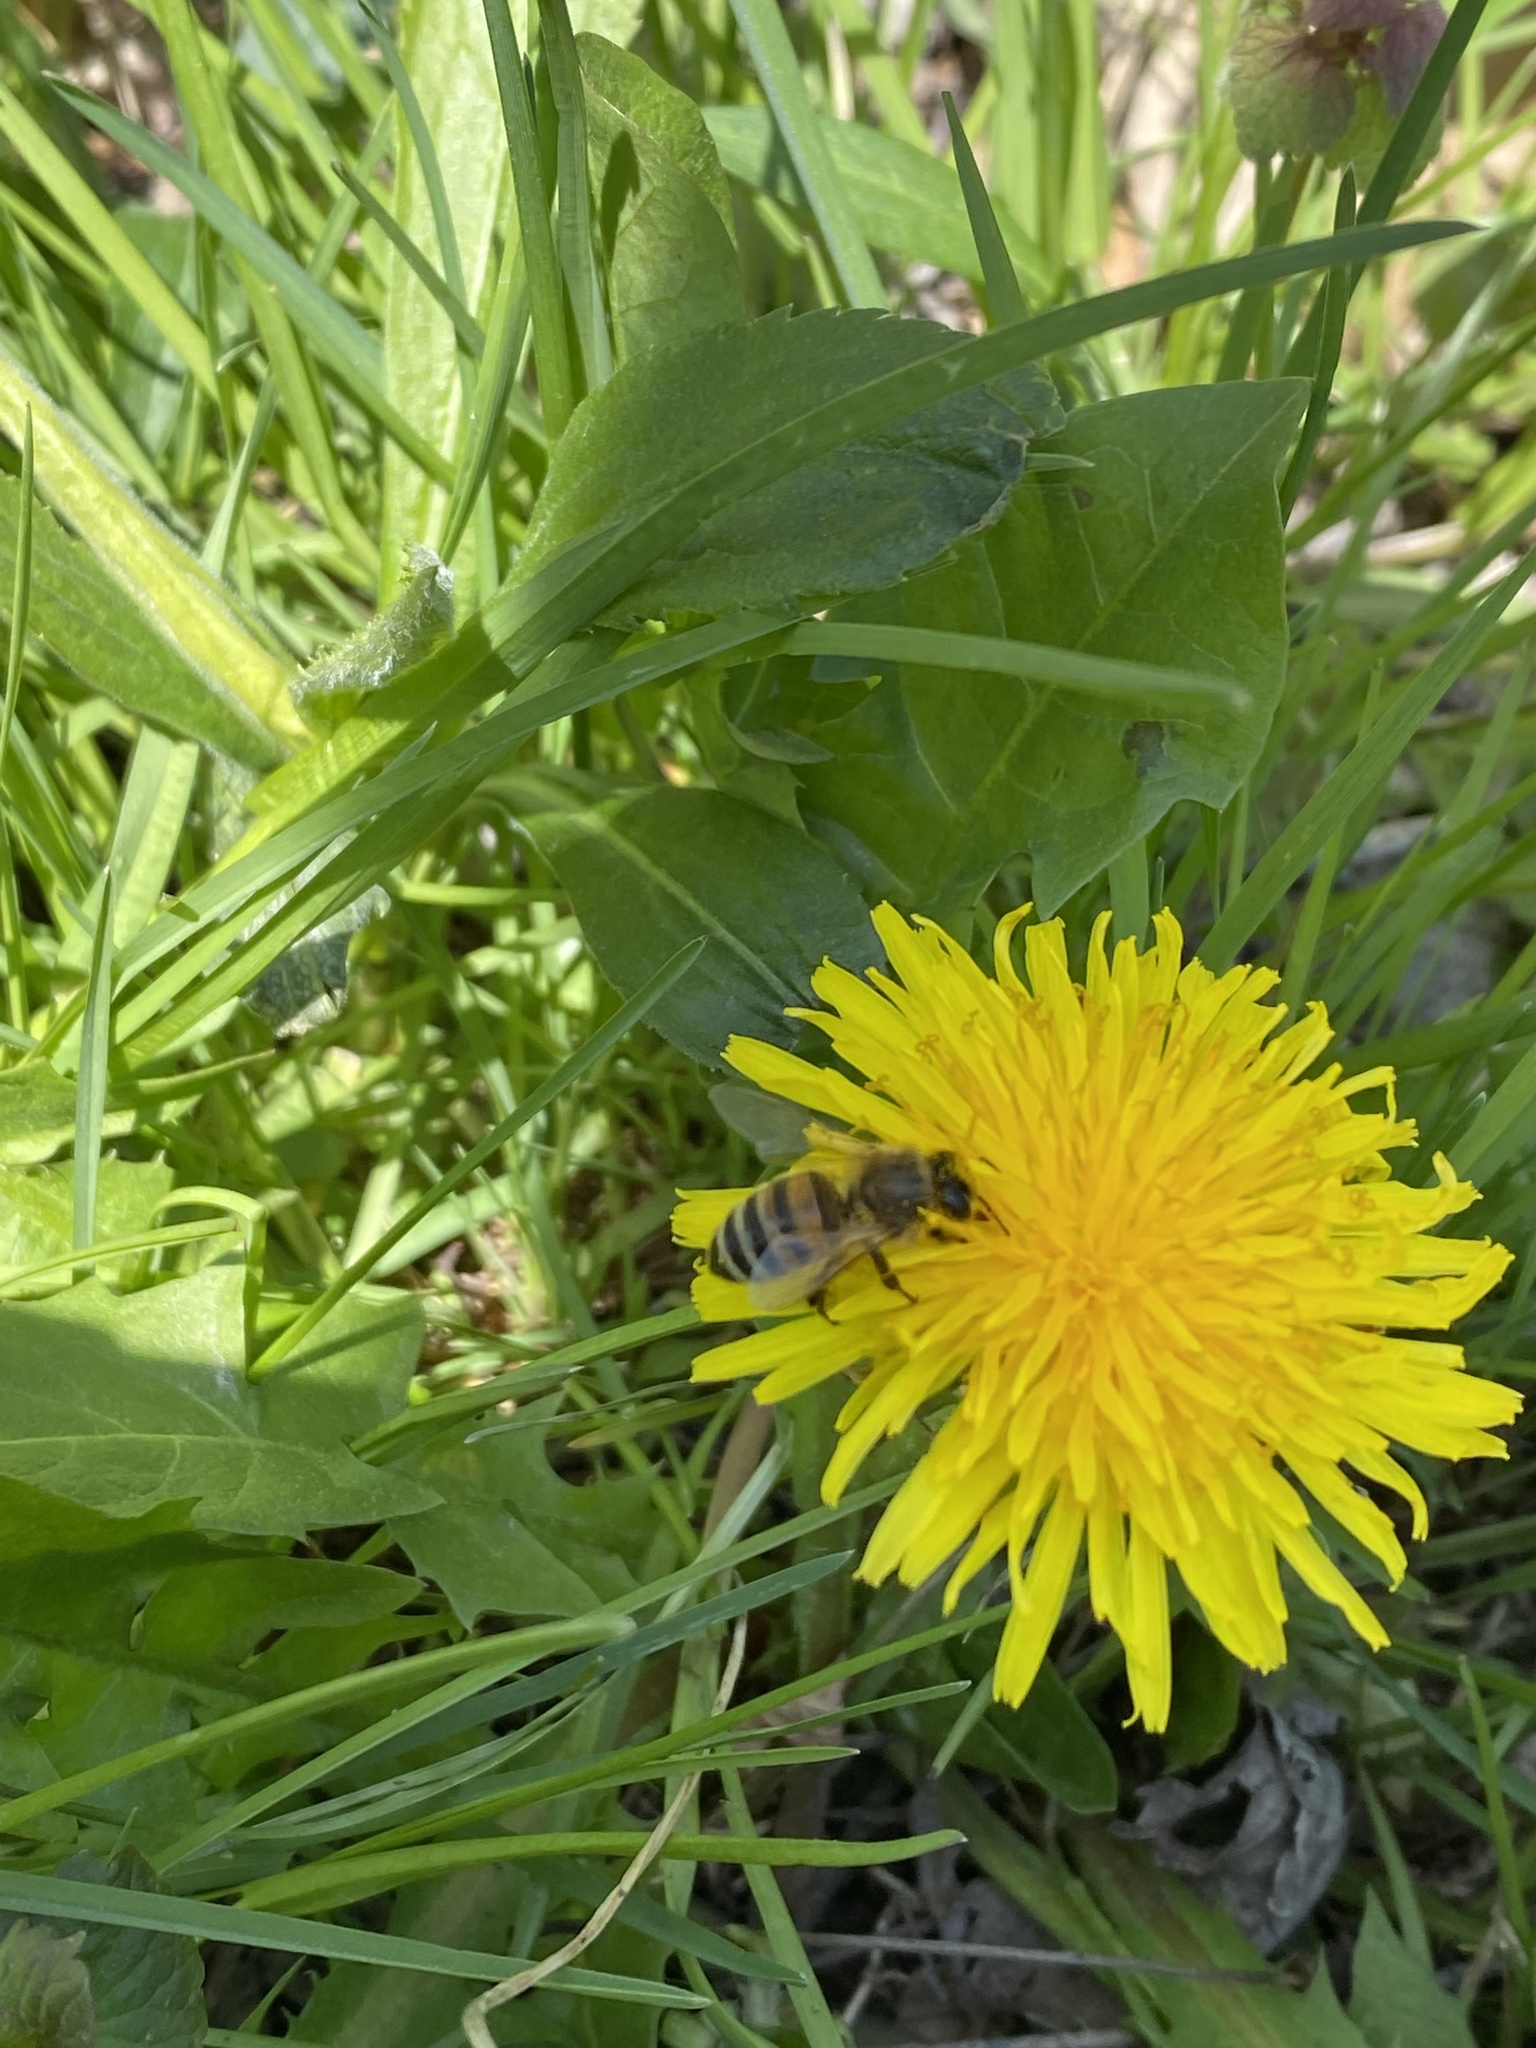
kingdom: Animalia
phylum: Arthropoda
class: Insecta
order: Hymenoptera
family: Apidae
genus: Apis
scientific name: Apis mellifera
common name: Honey bee
